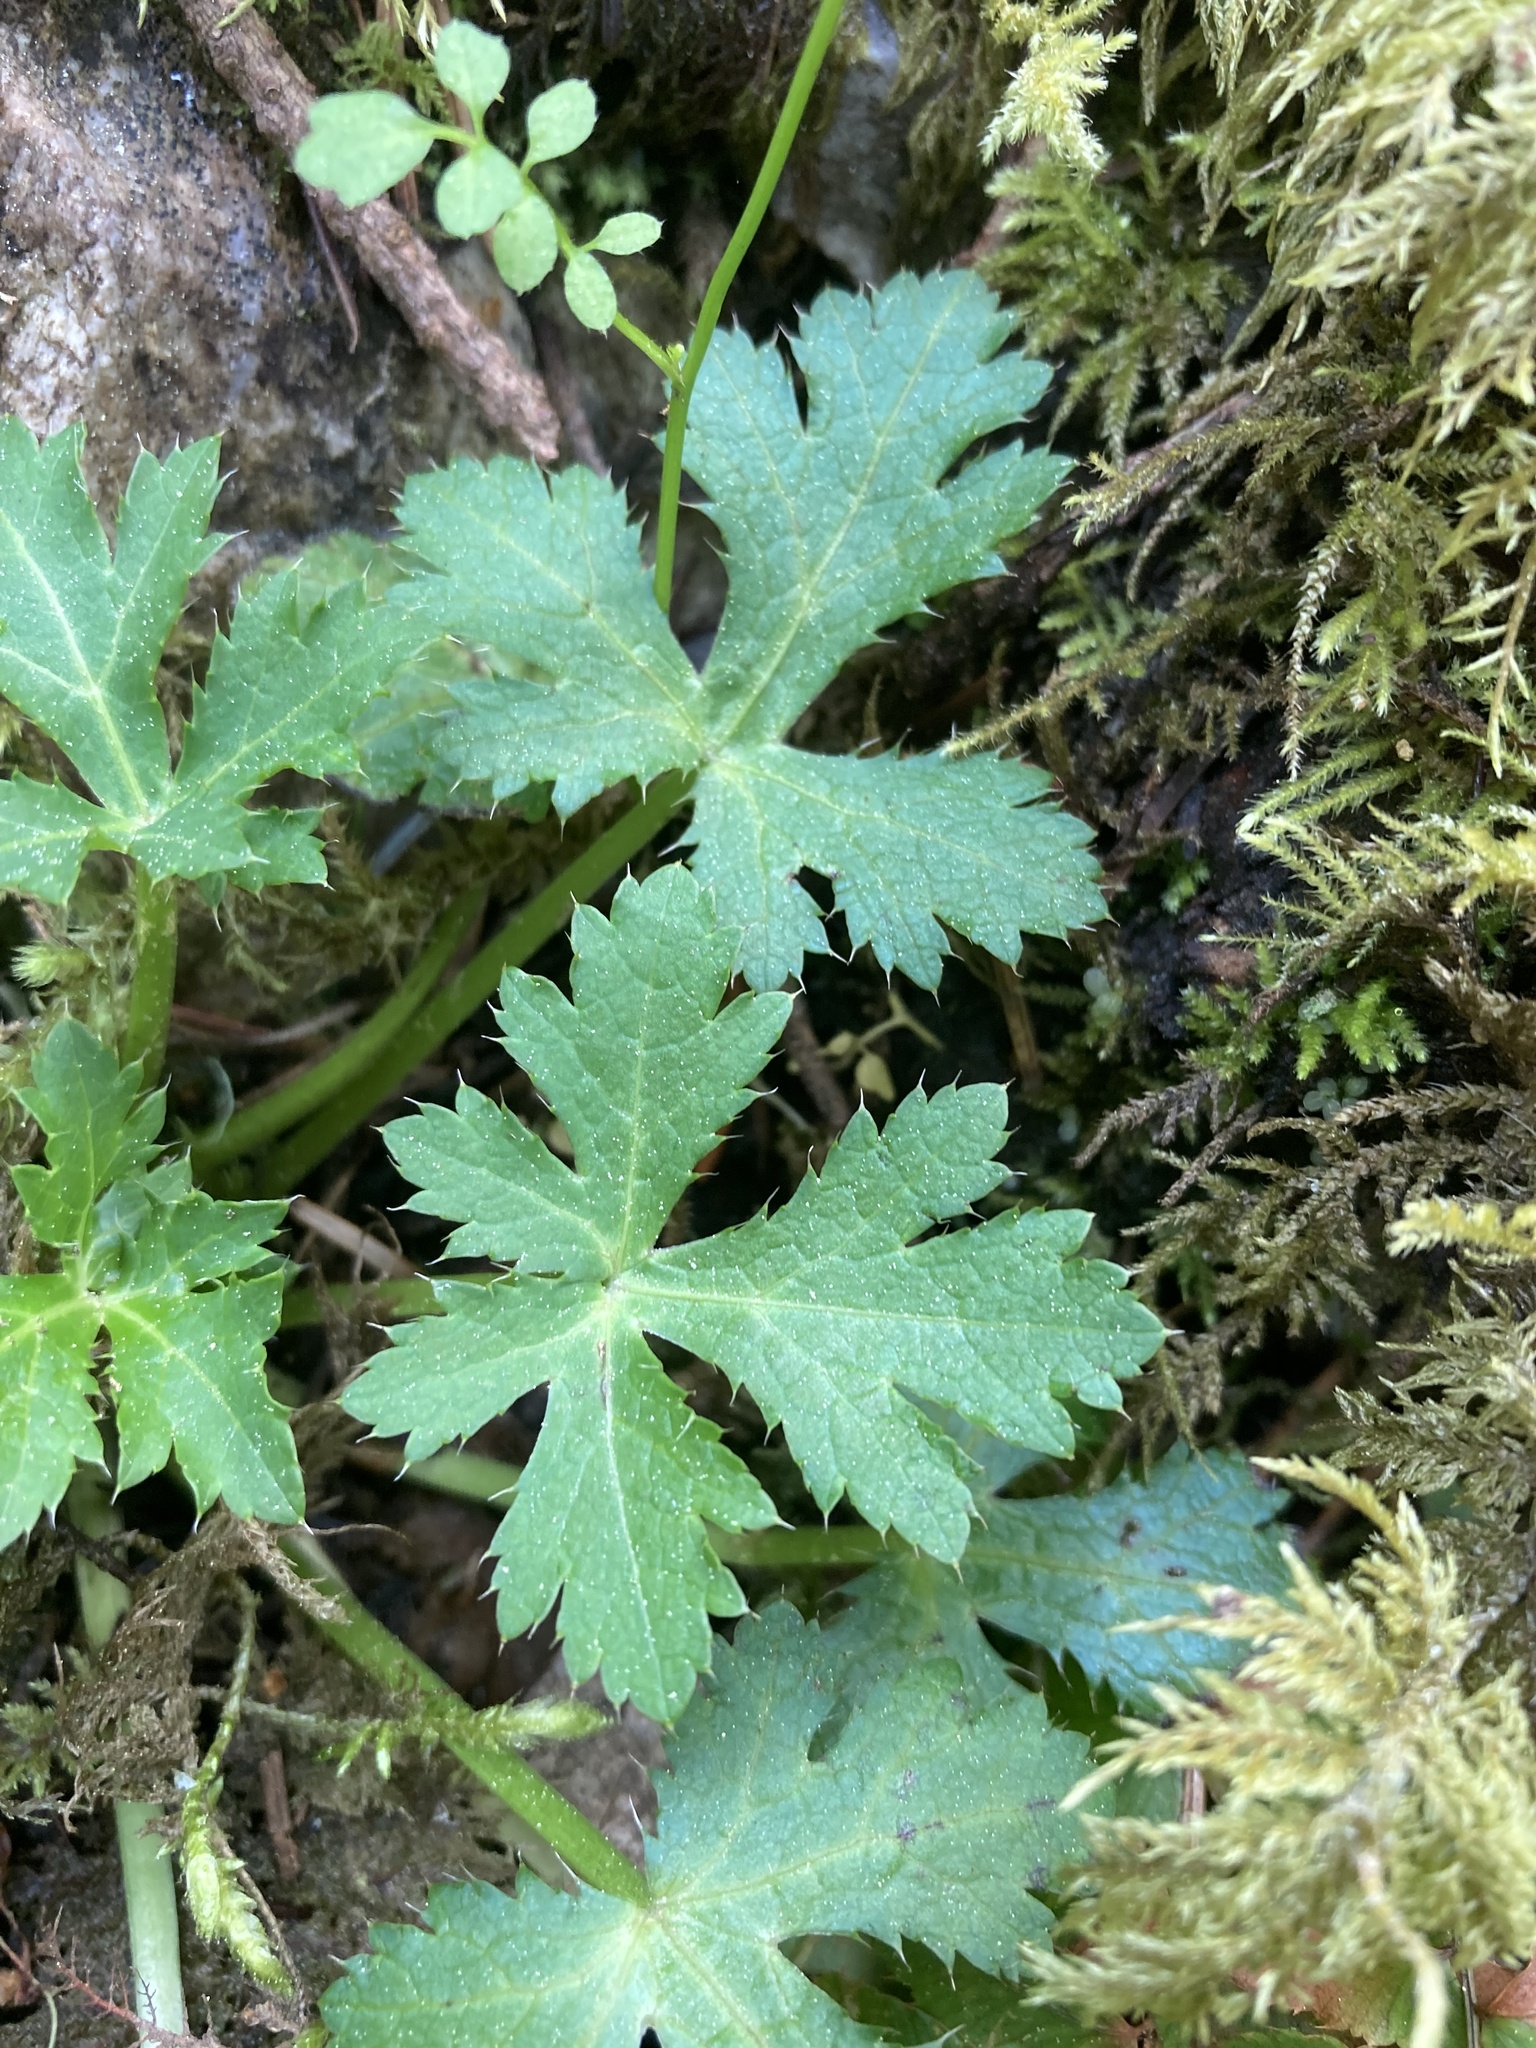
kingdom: Plantae
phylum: Tracheophyta
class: Magnoliopsida
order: Apiales
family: Apiaceae
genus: Sanicula
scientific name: Sanicula crassicaulis
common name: Western snakeroot
